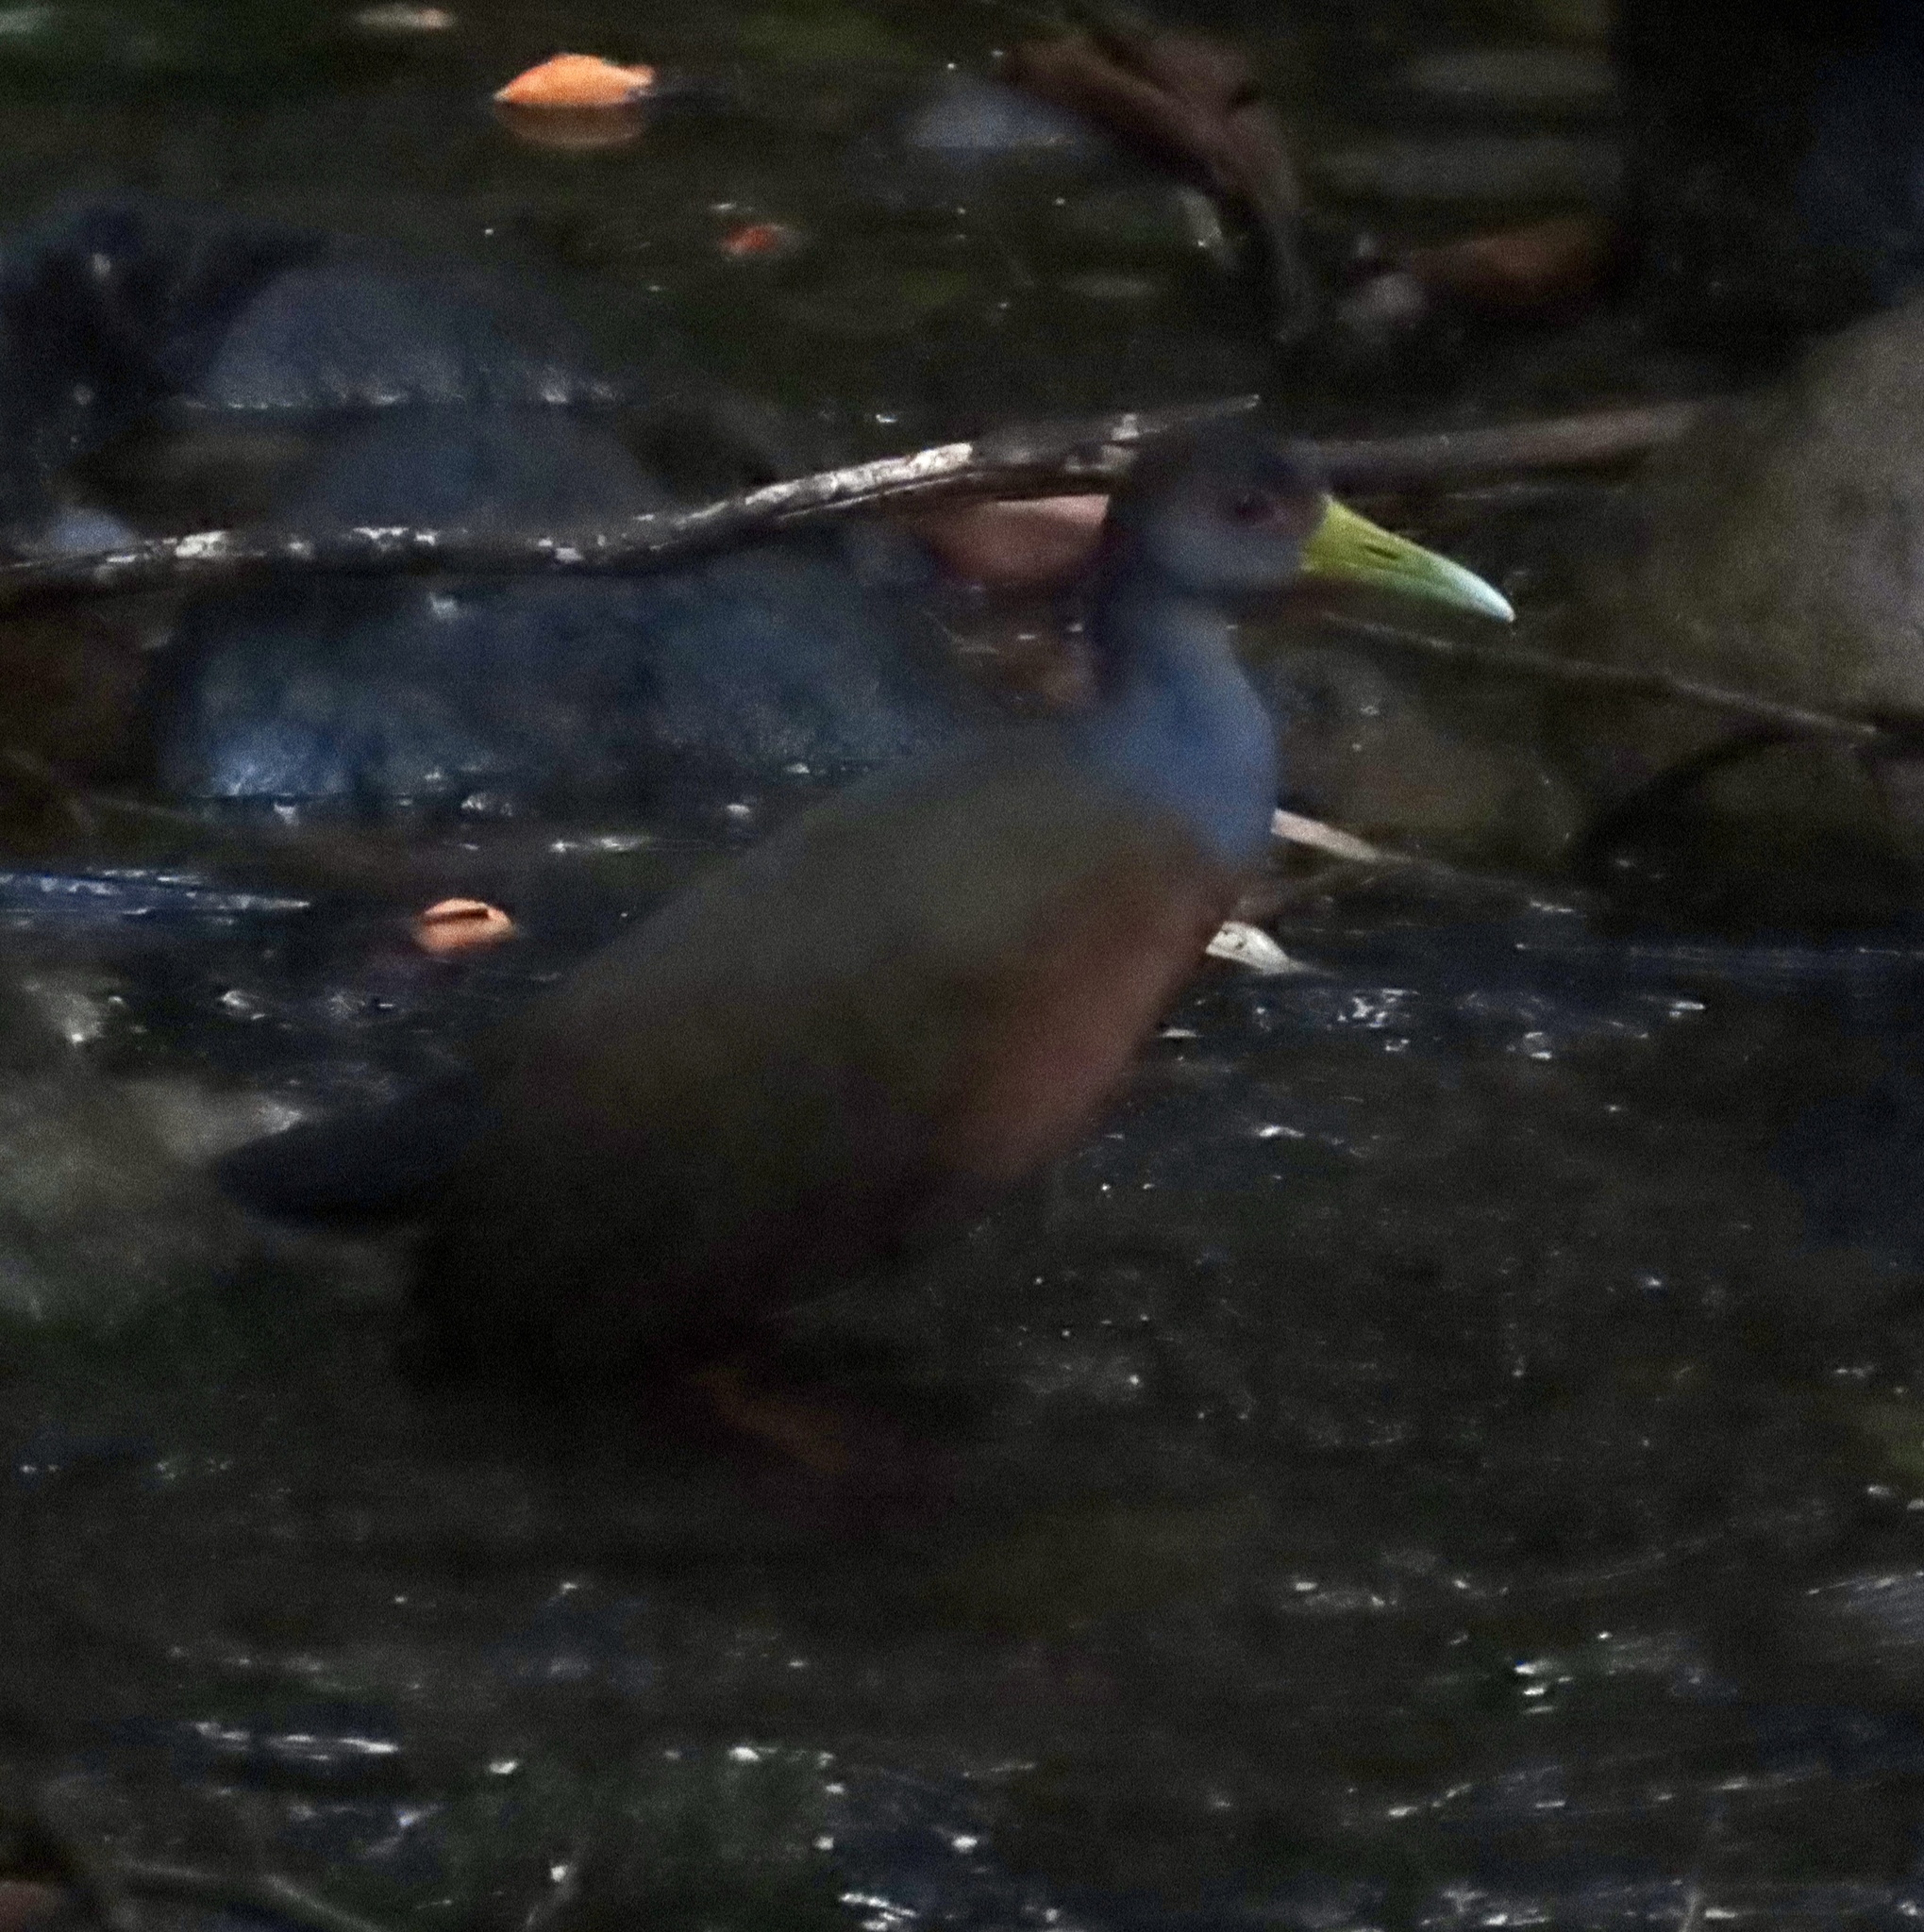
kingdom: Animalia
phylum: Chordata
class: Aves
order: Gruiformes
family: Rallidae
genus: Aramides
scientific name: Aramides cajanea
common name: Gray-necked wood-rail
